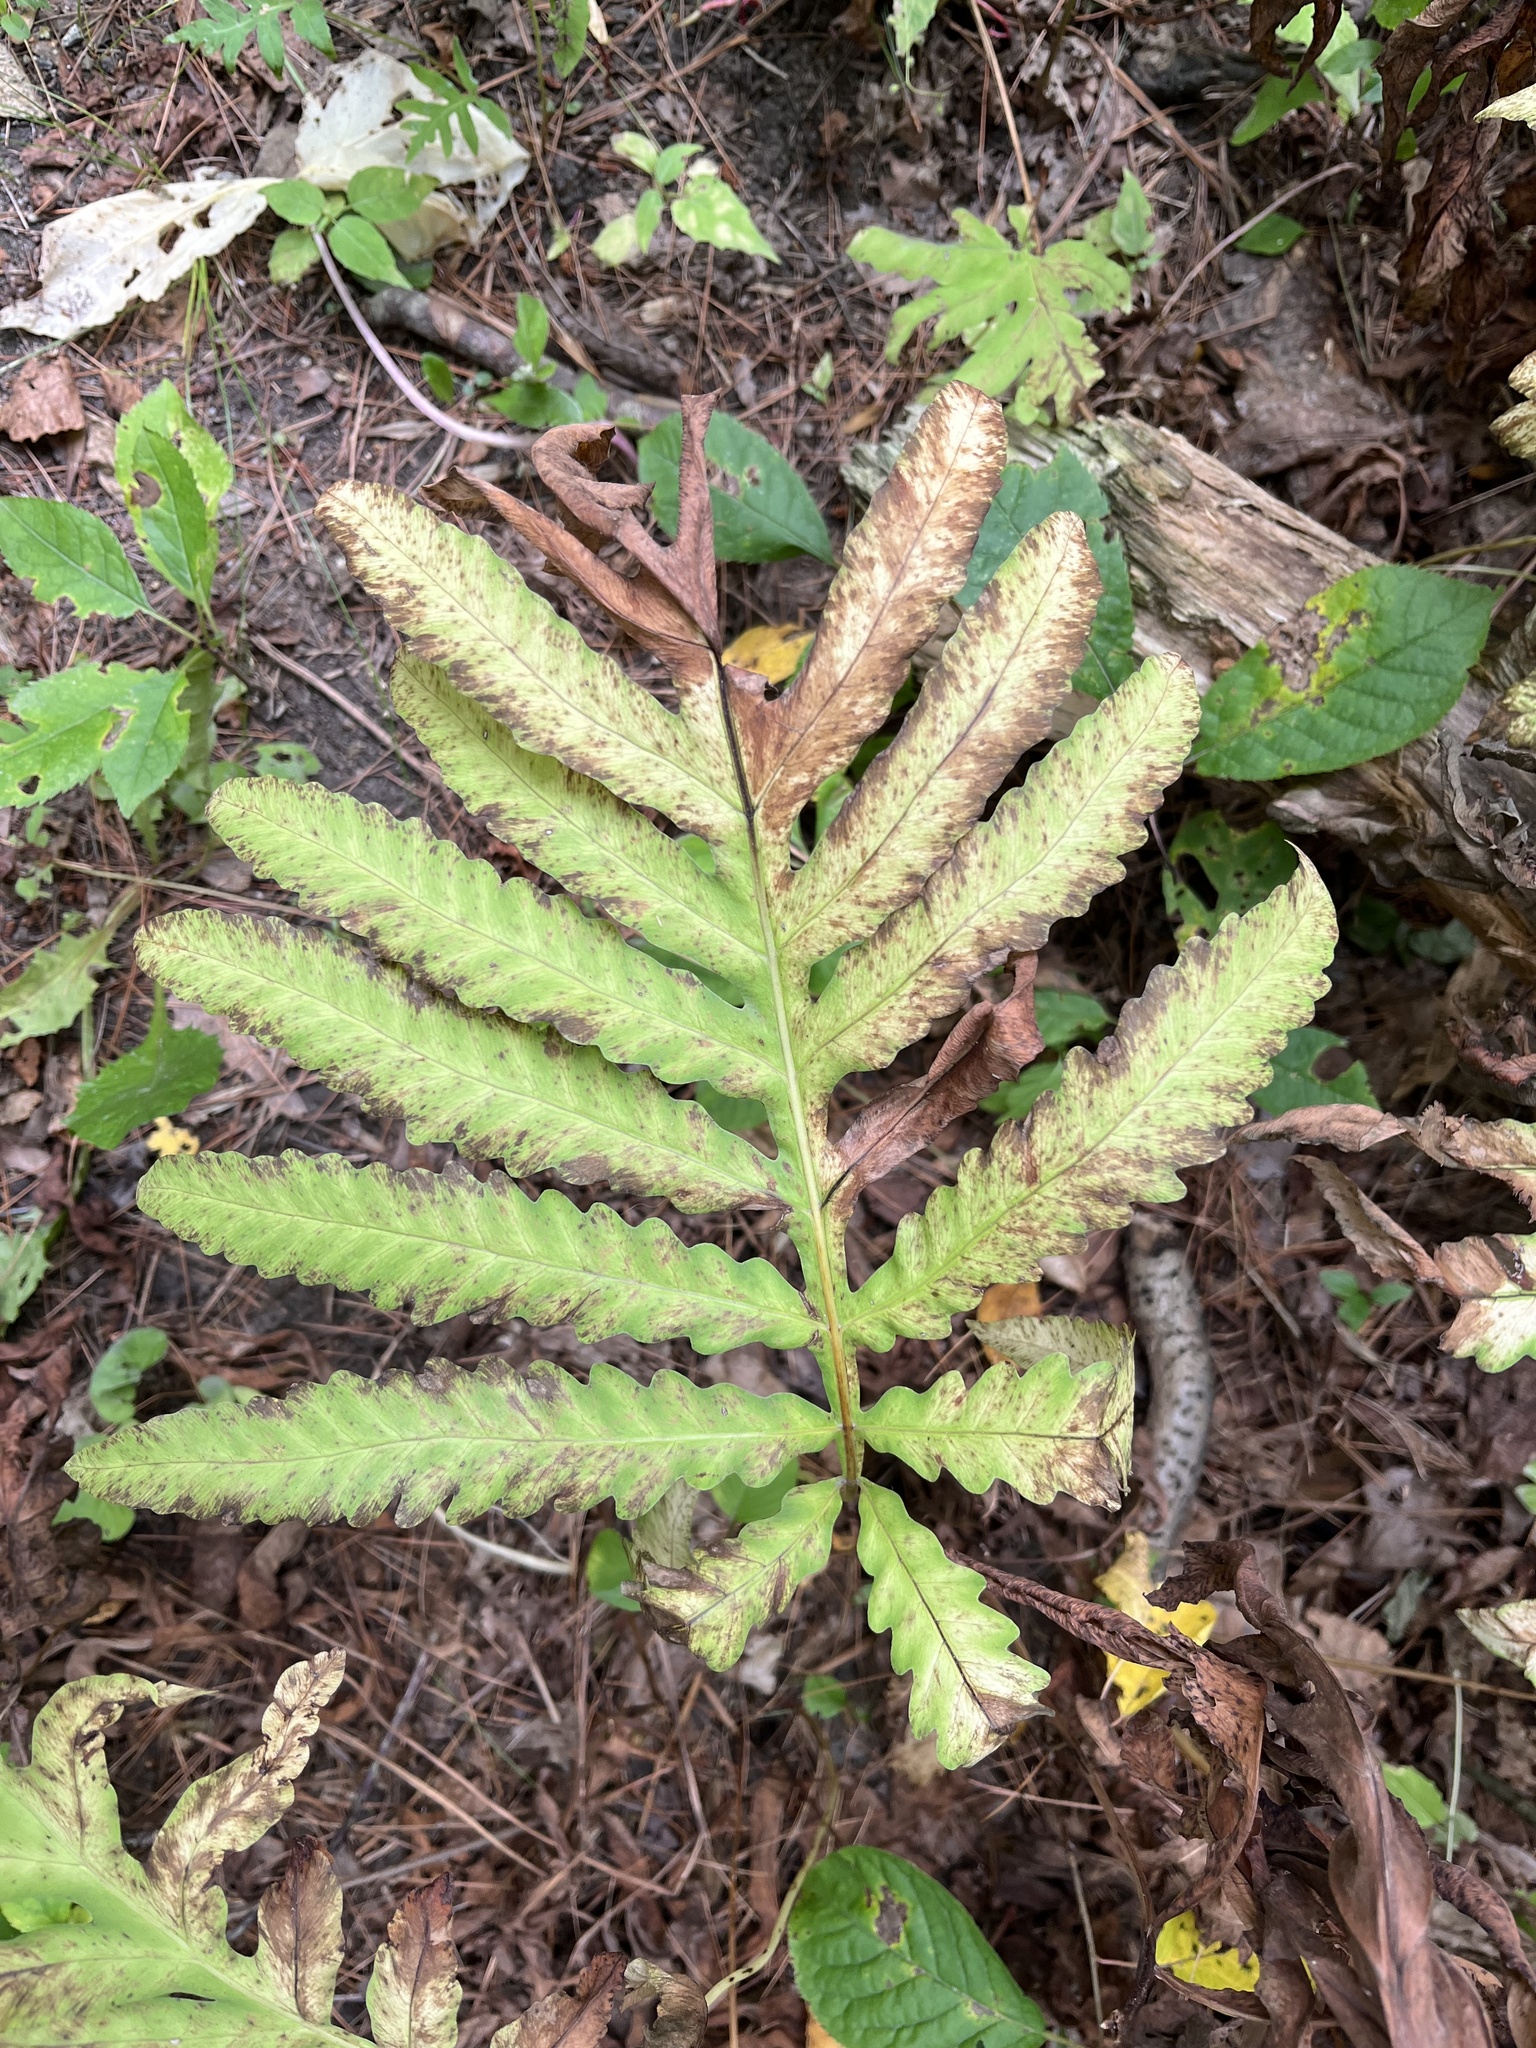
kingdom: Plantae
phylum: Tracheophyta
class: Polypodiopsida
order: Polypodiales
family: Onocleaceae
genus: Onoclea
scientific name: Onoclea sensibilis
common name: Sensitive fern
